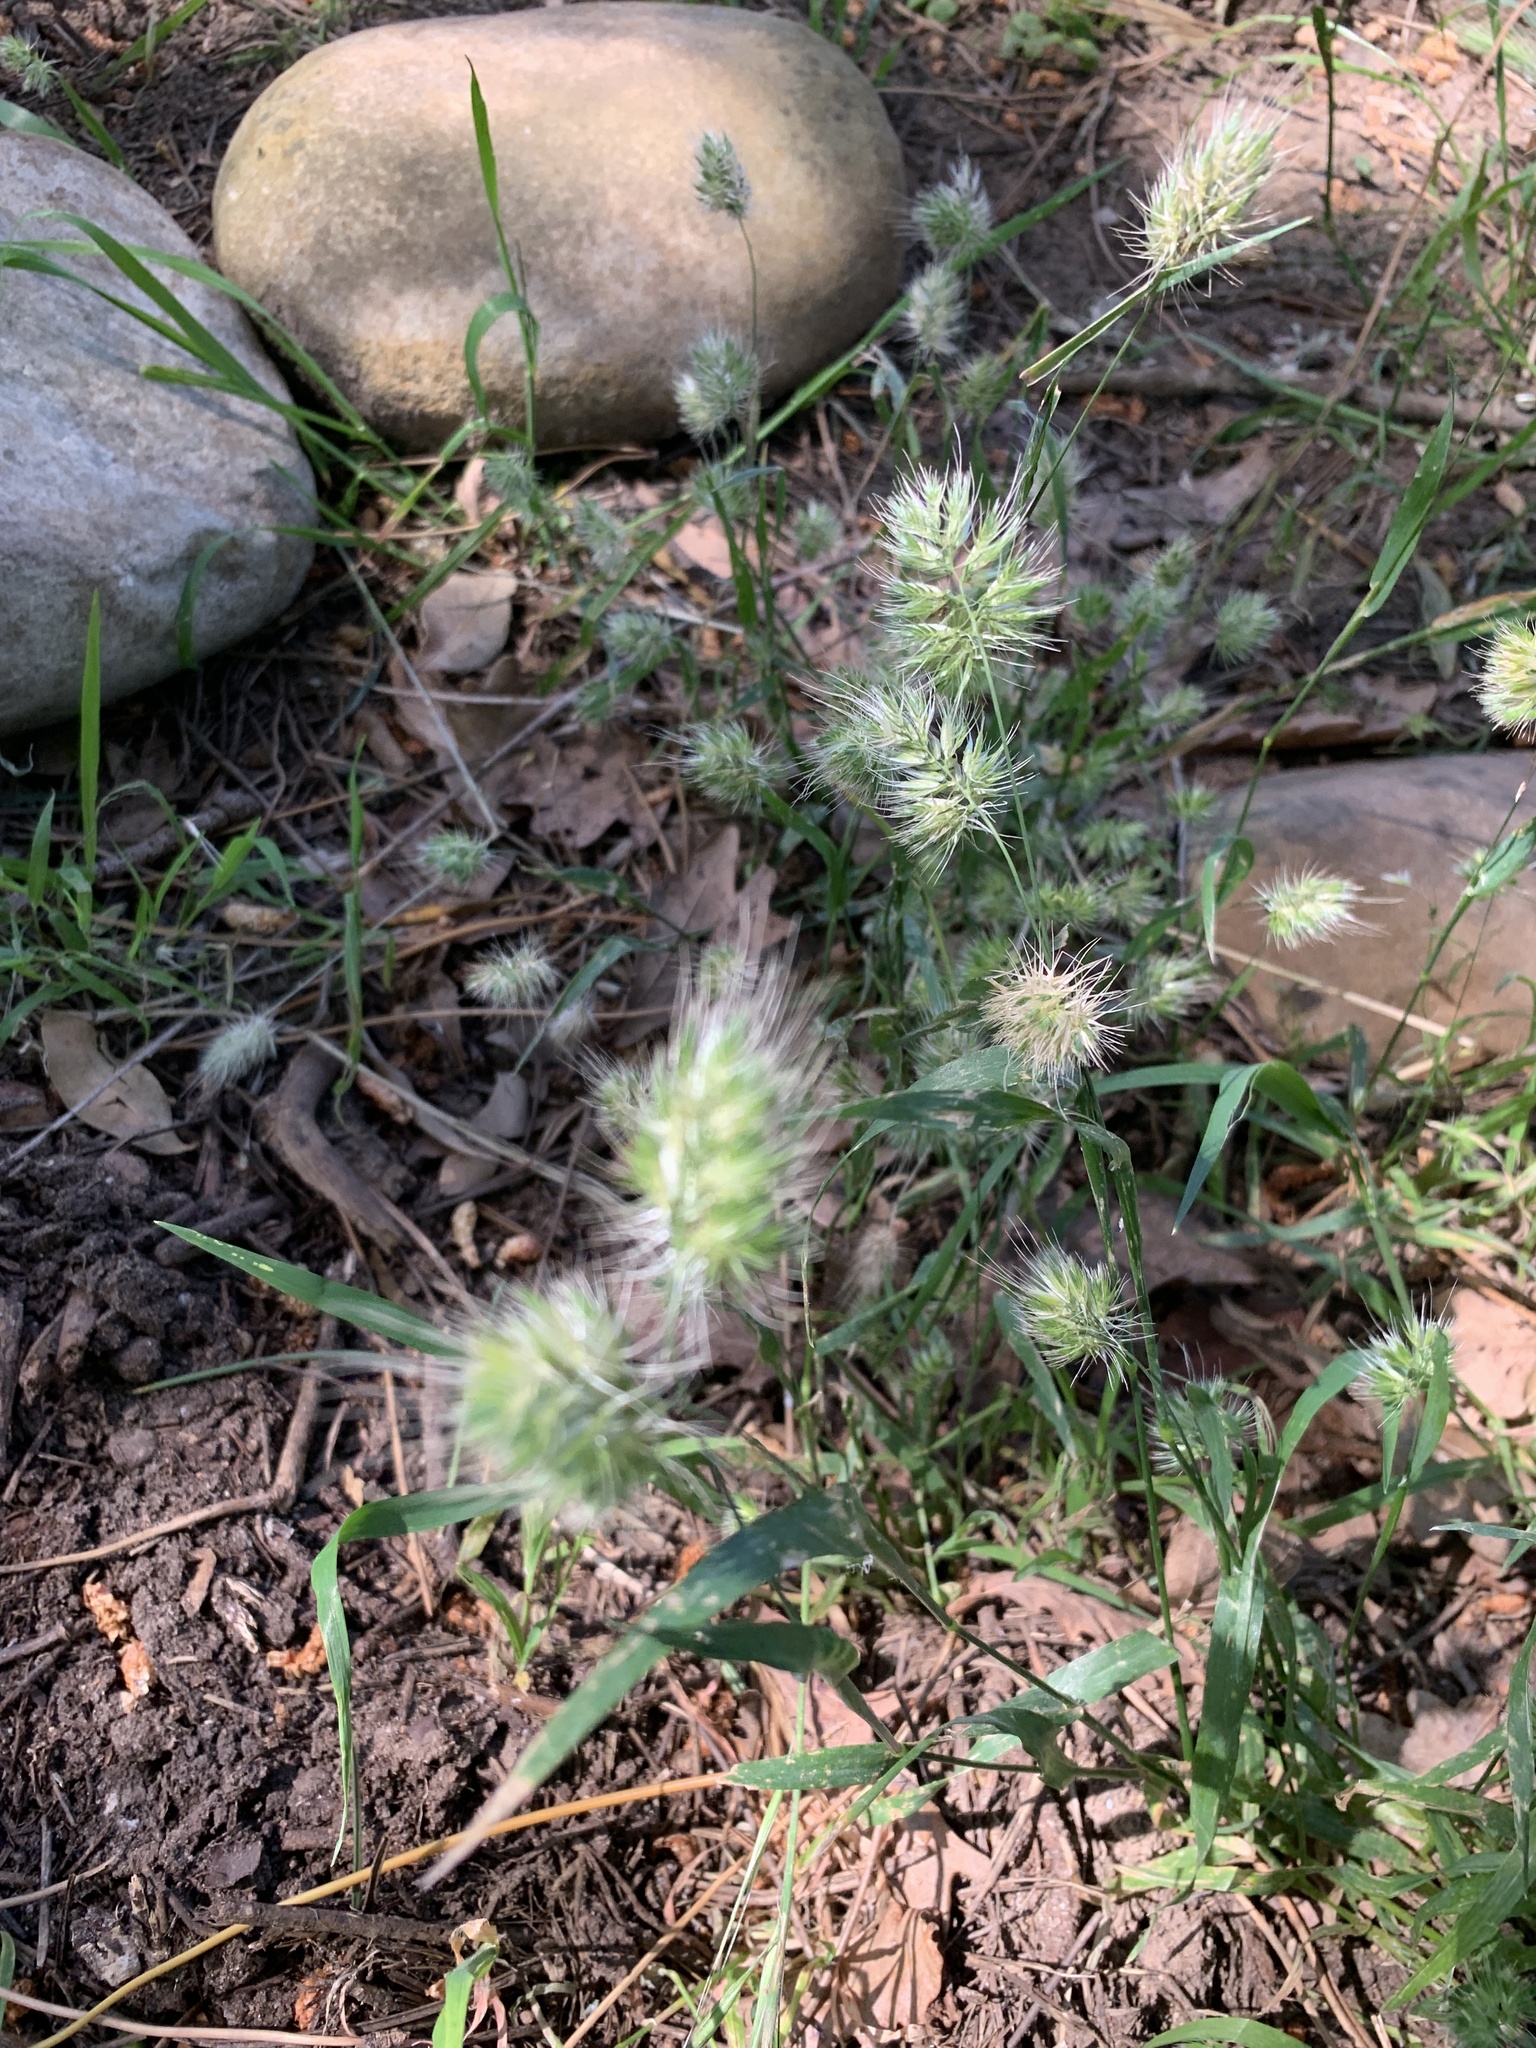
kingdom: Plantae
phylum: Tracheophyta
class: Liliopsida
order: Poales
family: Poaceae
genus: Cynosurus
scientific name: Cynosurus echinatus
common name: Rough dog's-tail
